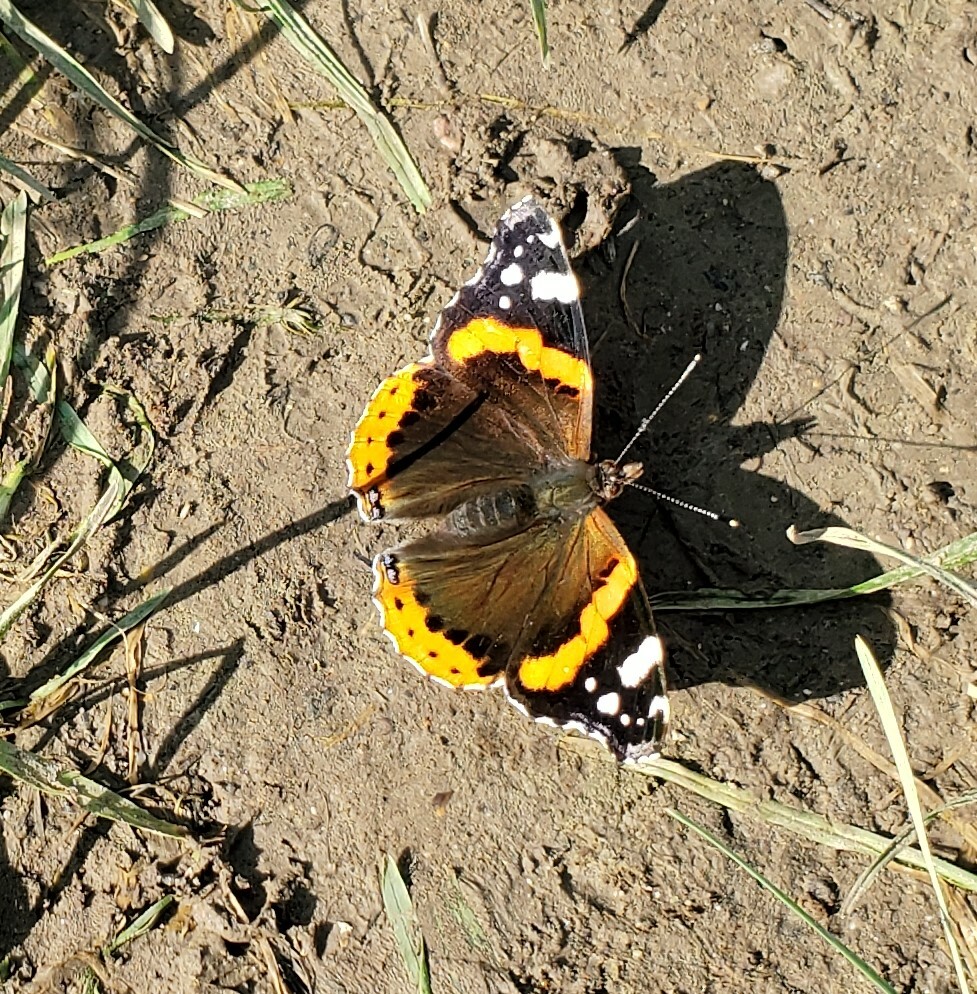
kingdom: Animalia
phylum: Arthropoda
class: Insecta
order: Lepidoptera
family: Nymphalidae
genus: Vanessa
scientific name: Vanessa atalanta
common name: Red admiral
